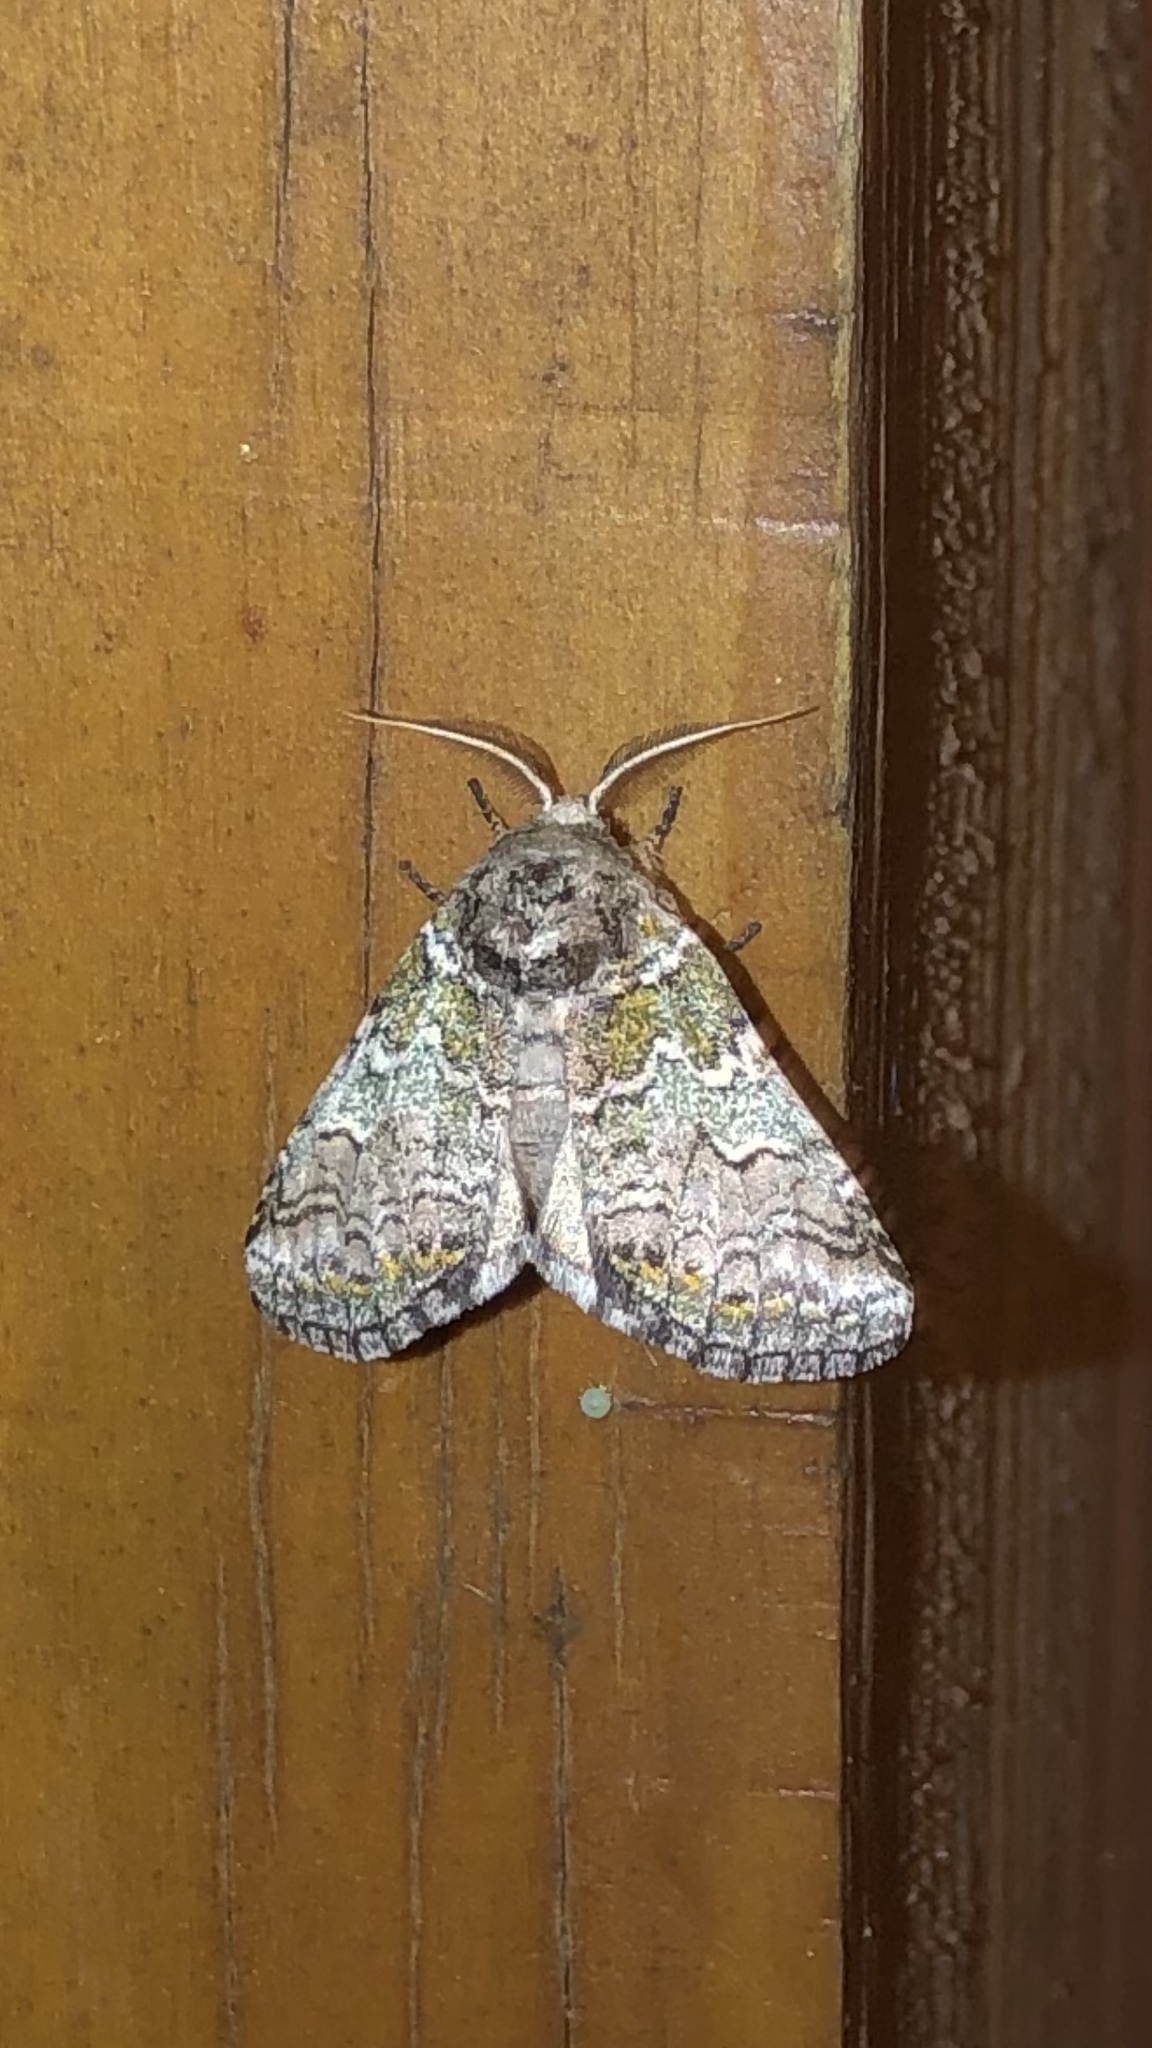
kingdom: Animalia
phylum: Arthropoda
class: Insecta
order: Lepidoptera
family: Notodontidae
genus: Litodonta
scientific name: Litodonta hydromeli
